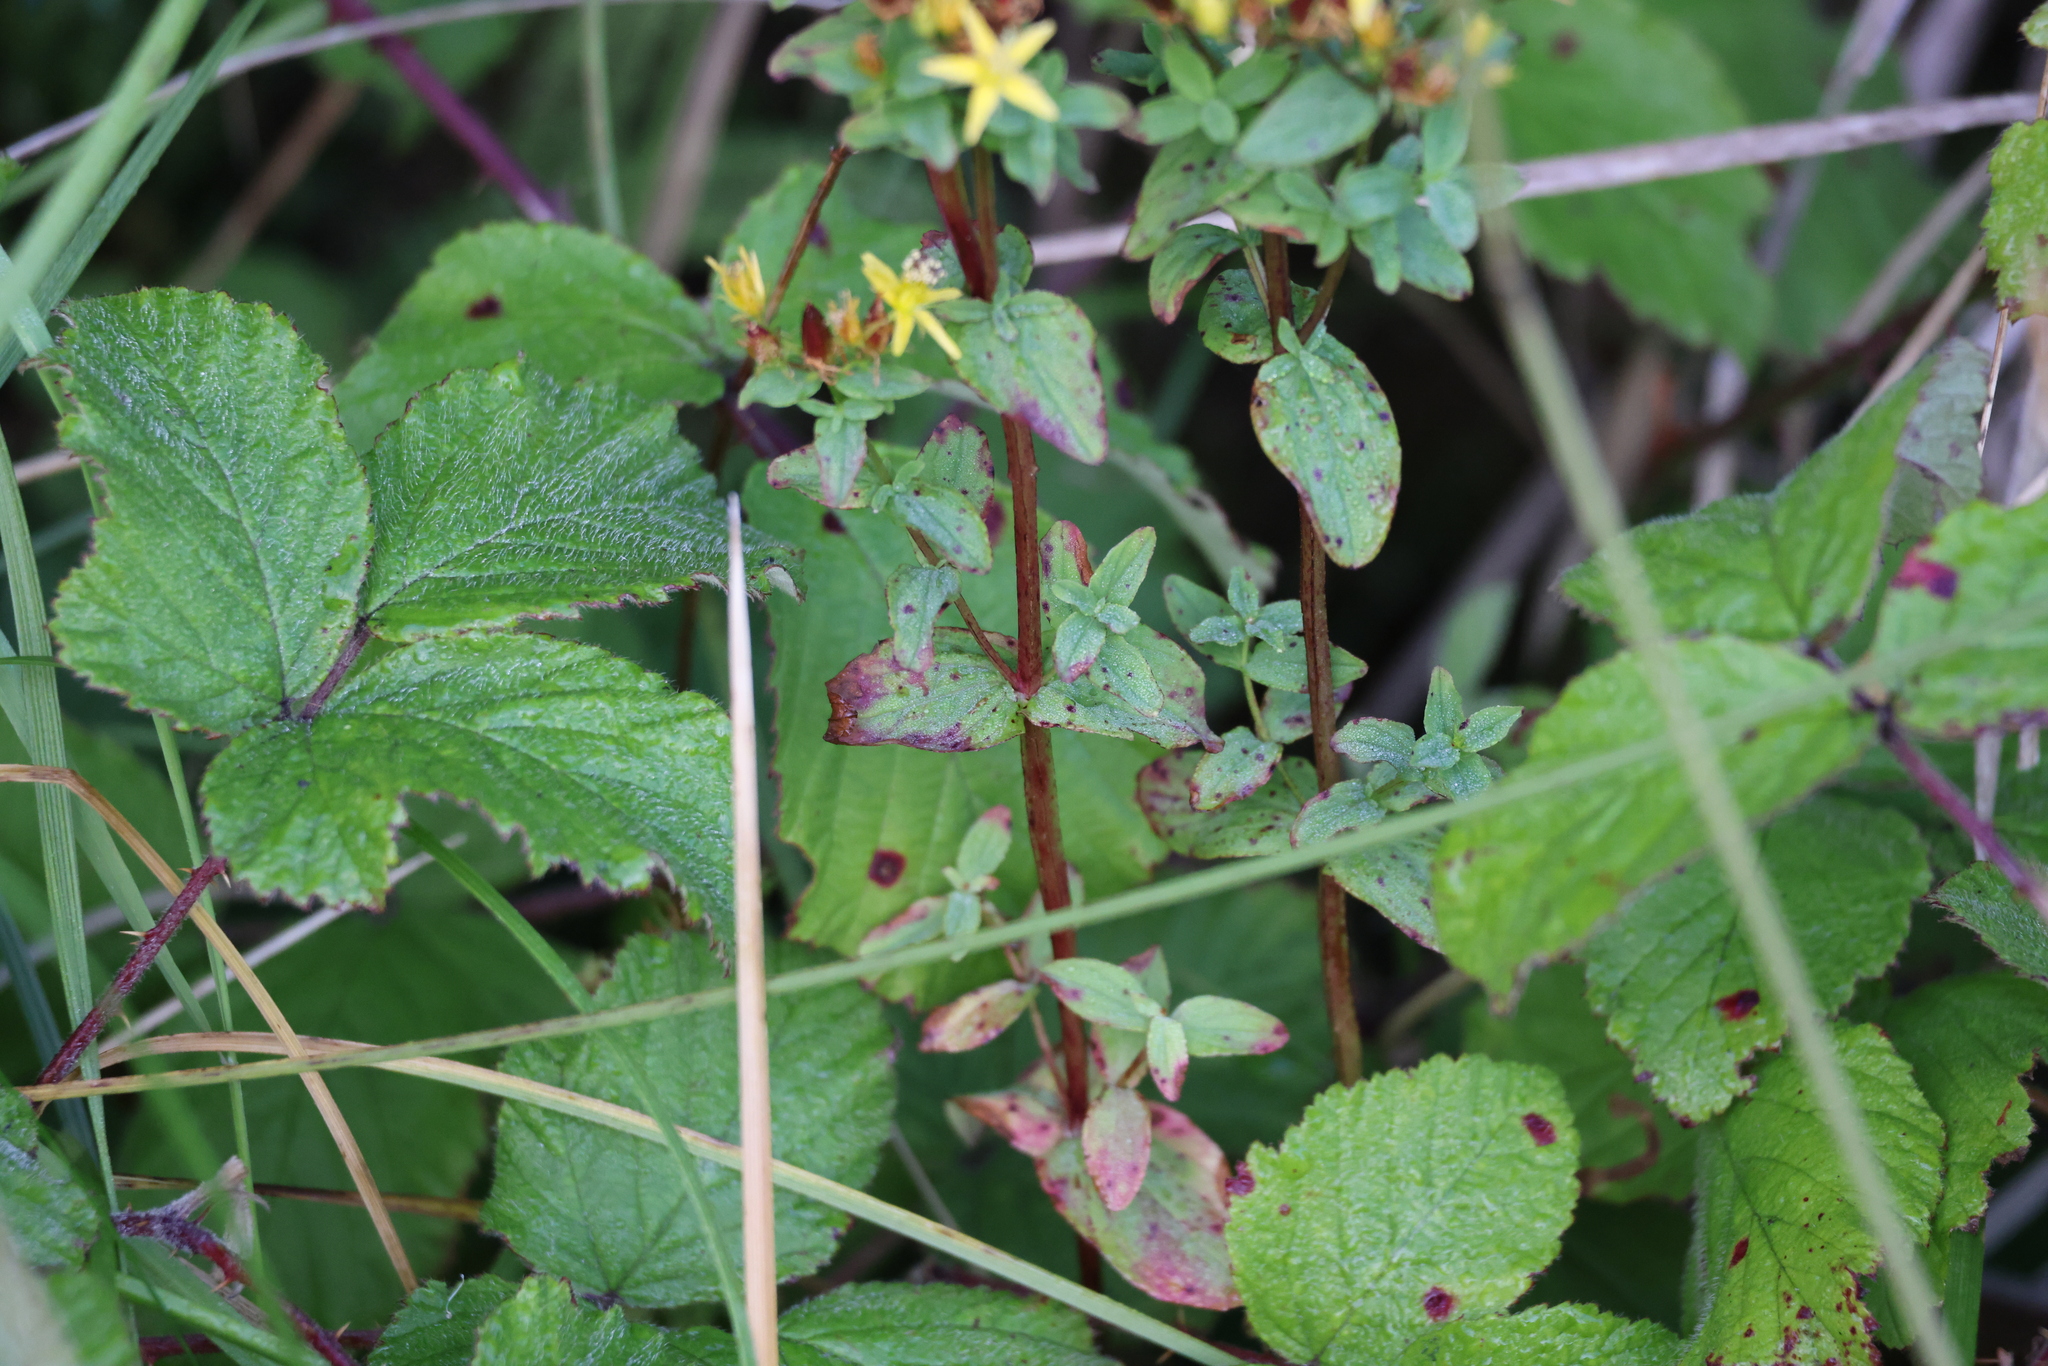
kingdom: Plantae
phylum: Tracheophyta
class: Magnoliopsida
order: Malpighiales
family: Hypericaceae
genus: Hypericum
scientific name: Hypericum tetrapterum
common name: Square-stalked st. john's-wort
